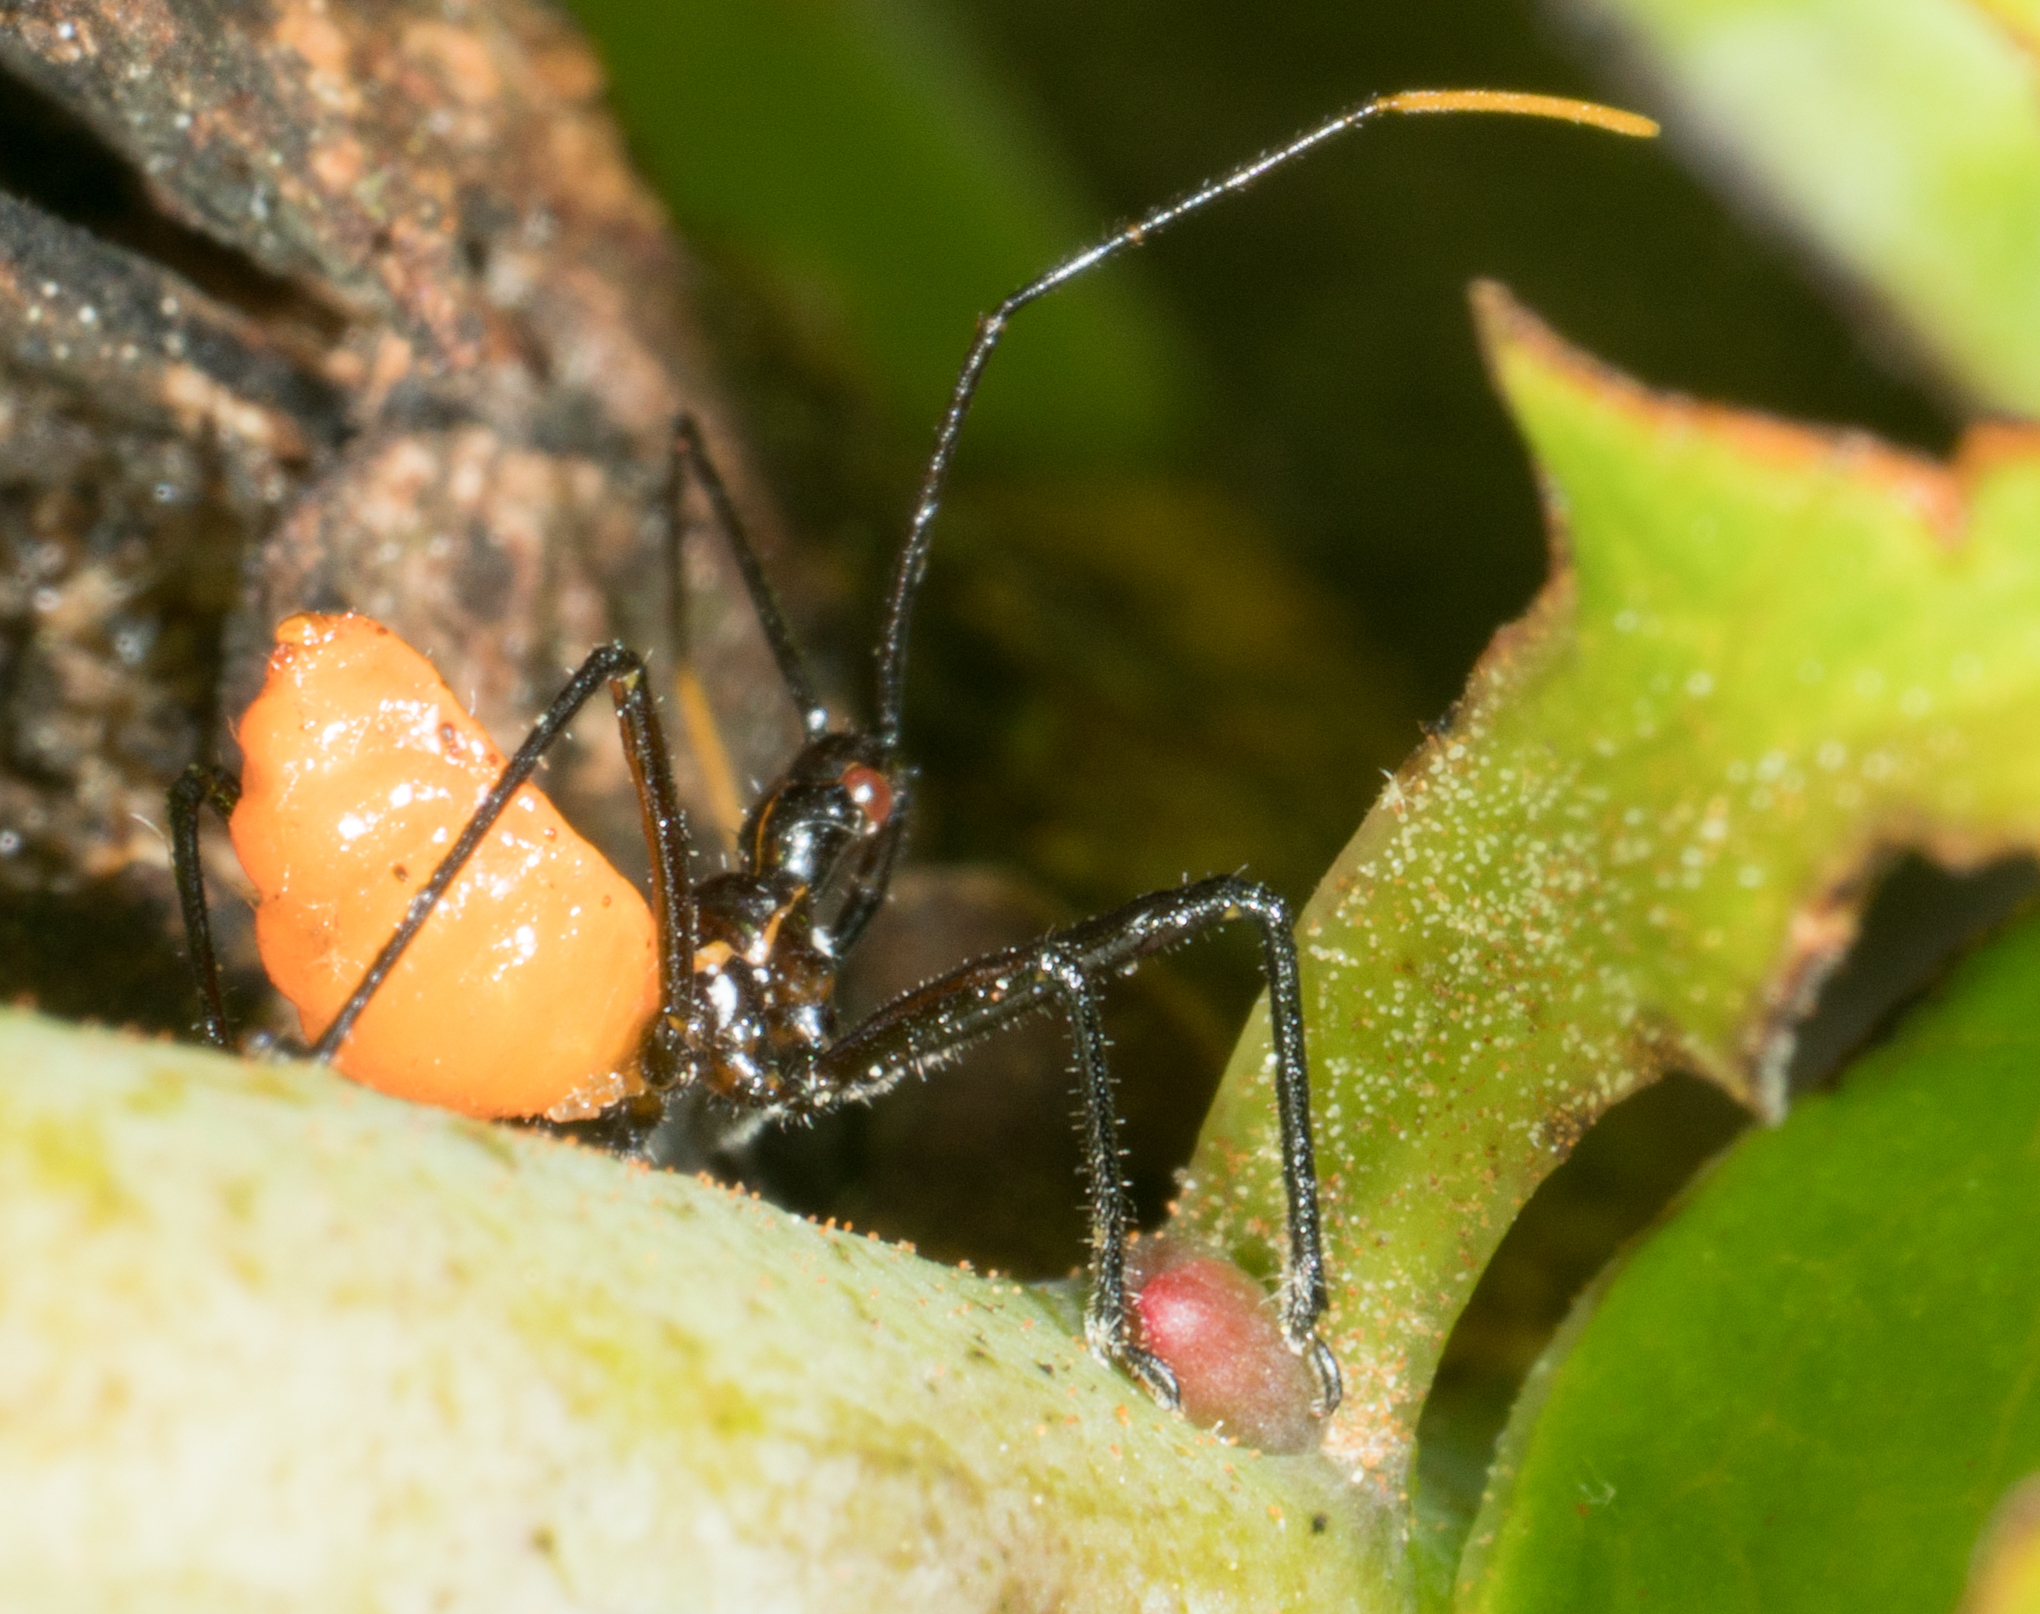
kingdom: Animalia
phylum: Arthropoda
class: Insecta
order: Hemiptera
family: Reduviidae
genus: Arilus
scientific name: Arilus cristatus
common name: North american wheel bug
